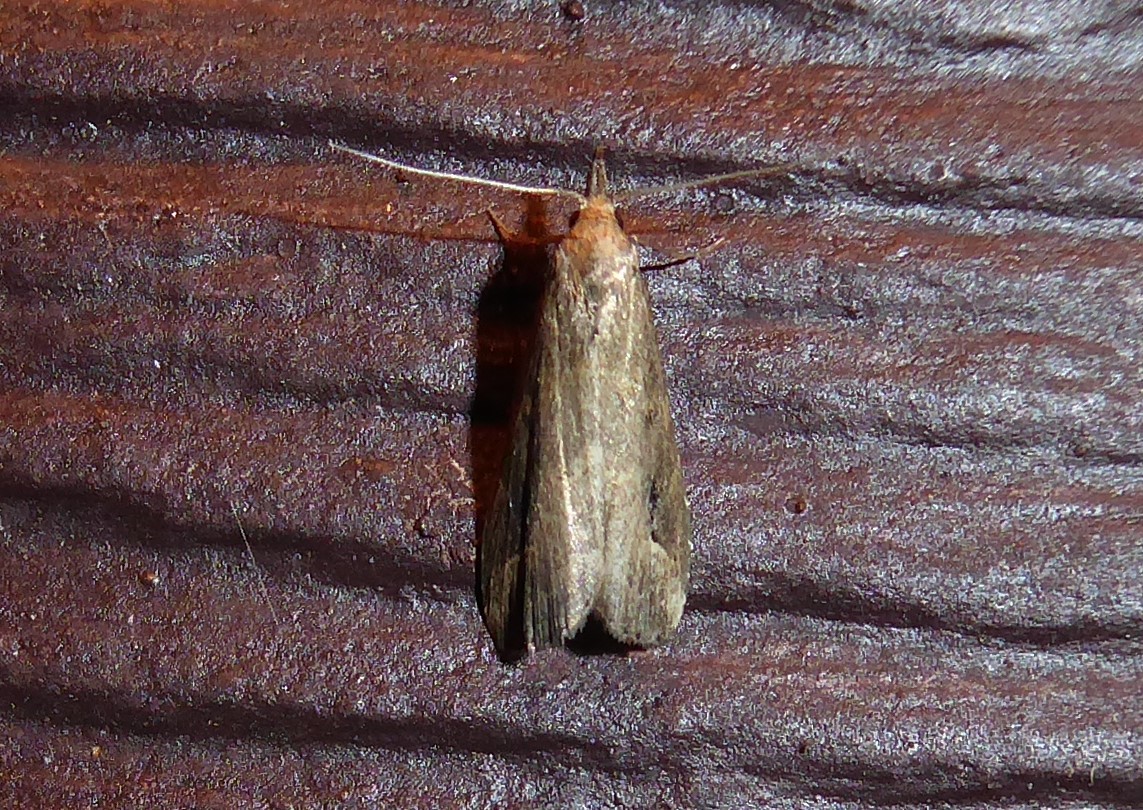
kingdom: Animalia
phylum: Arthropoda
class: Insecta
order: Lepidoptera
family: Erebidae
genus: Schrankia
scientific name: Schrankia costaestrigalis
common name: Pinion-streaked snout
